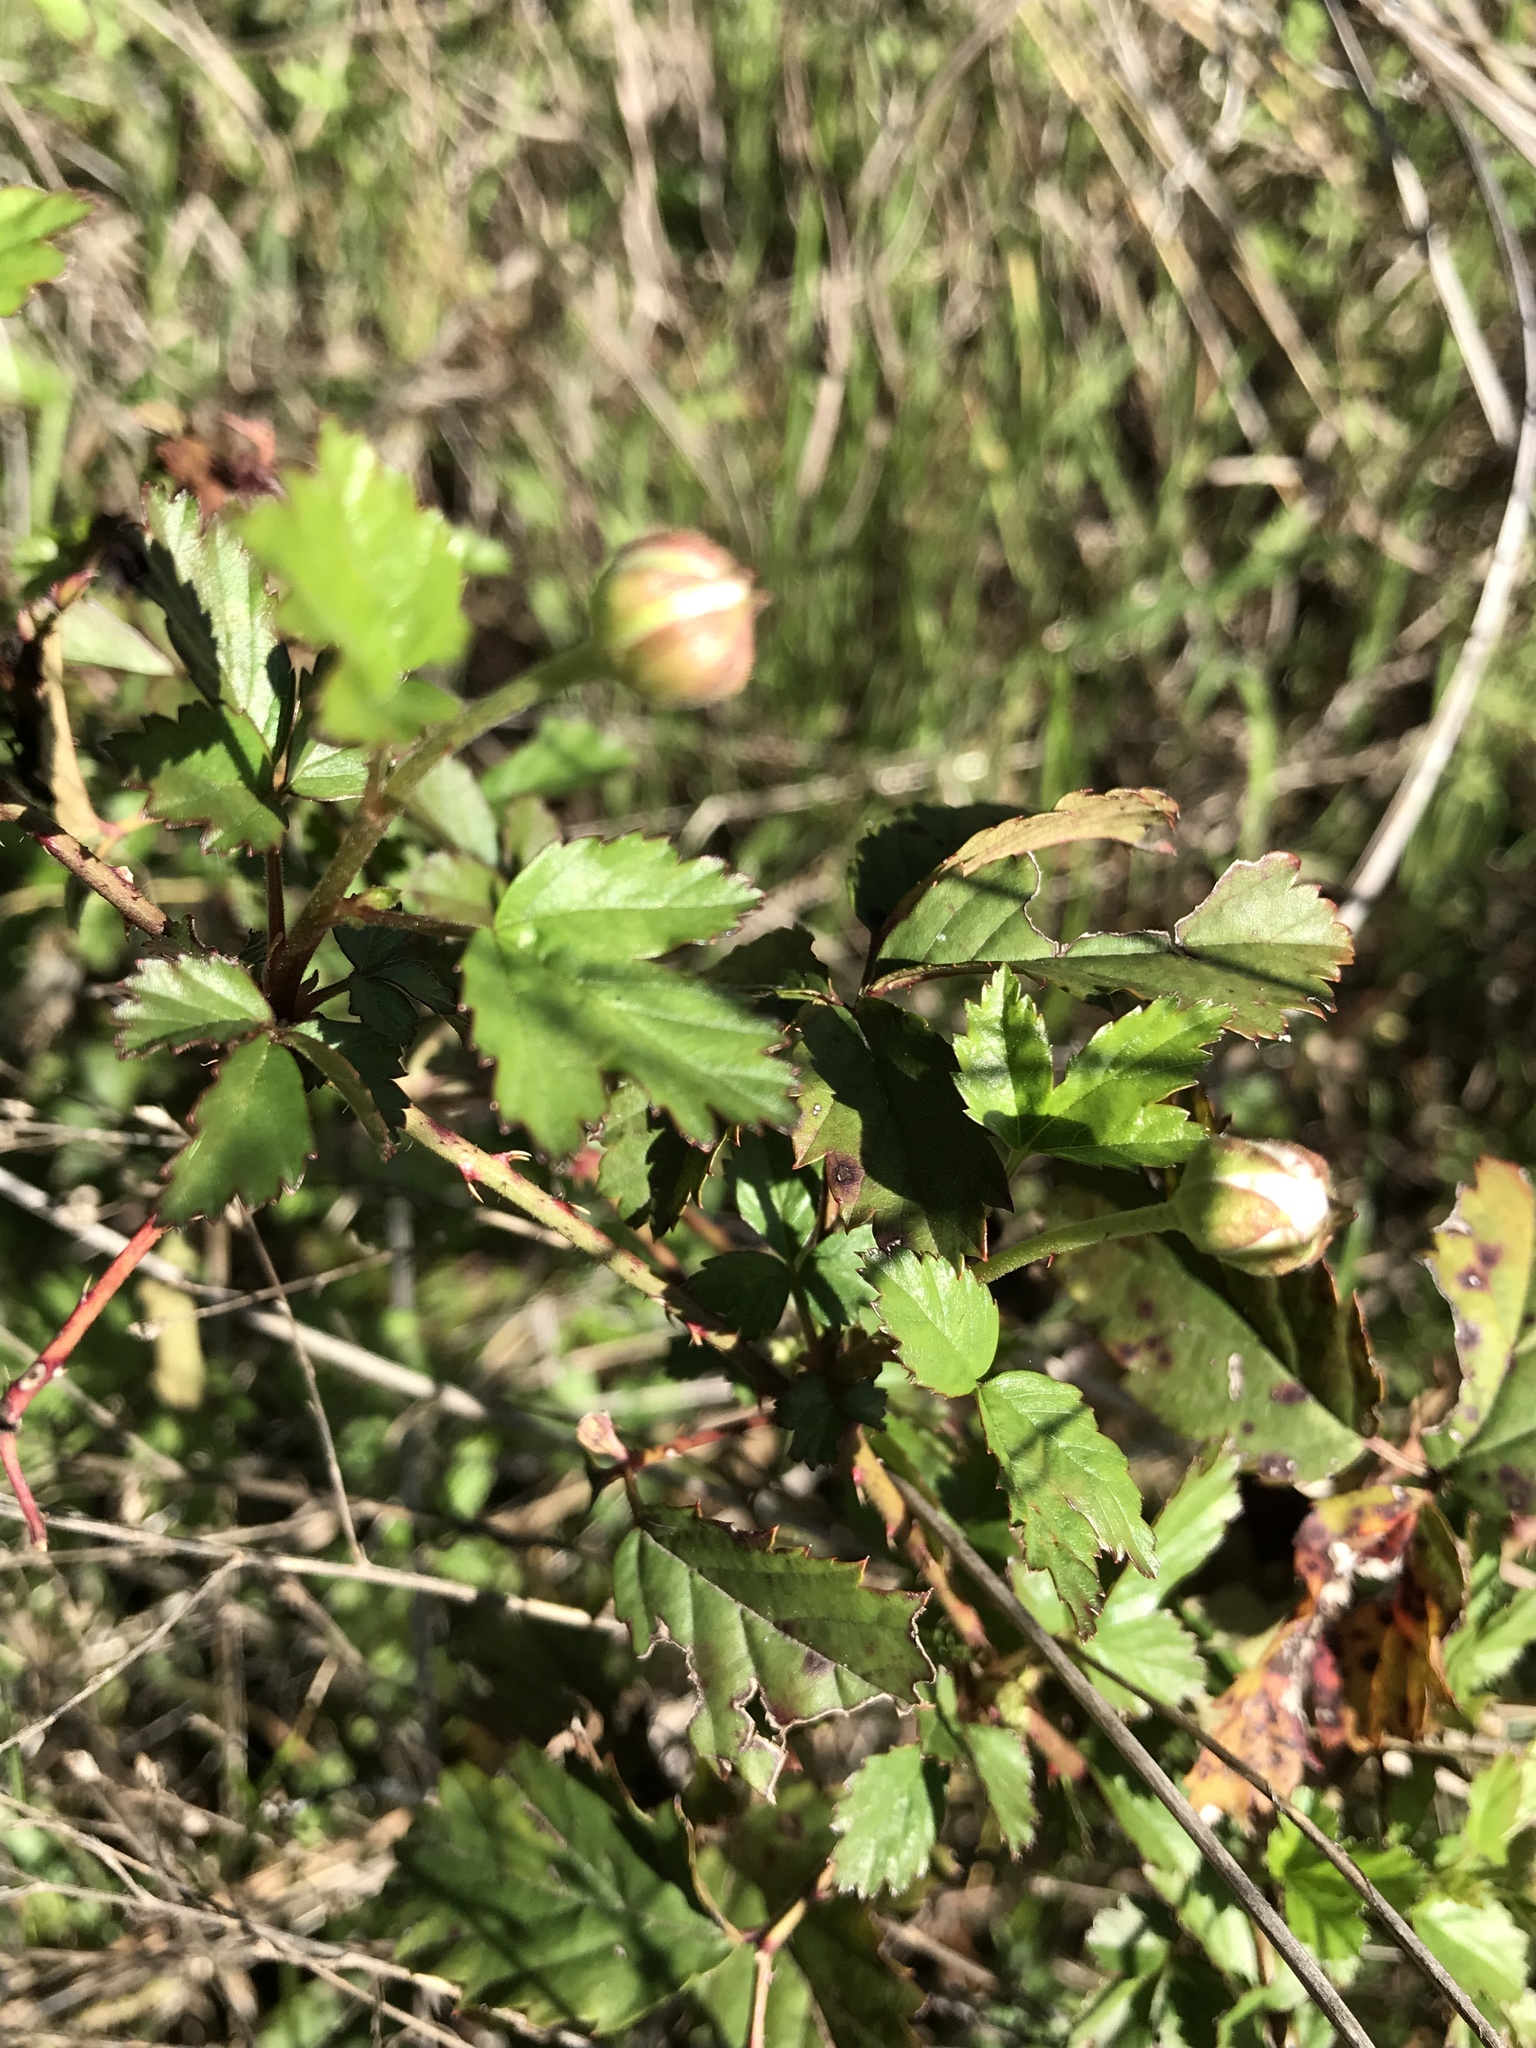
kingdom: Plantae
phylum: Tracheophyta
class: Magnoliopsida
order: Rosales
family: Rosaceae
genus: Rubus
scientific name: Rubus trivialis
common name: Southern dewberry
